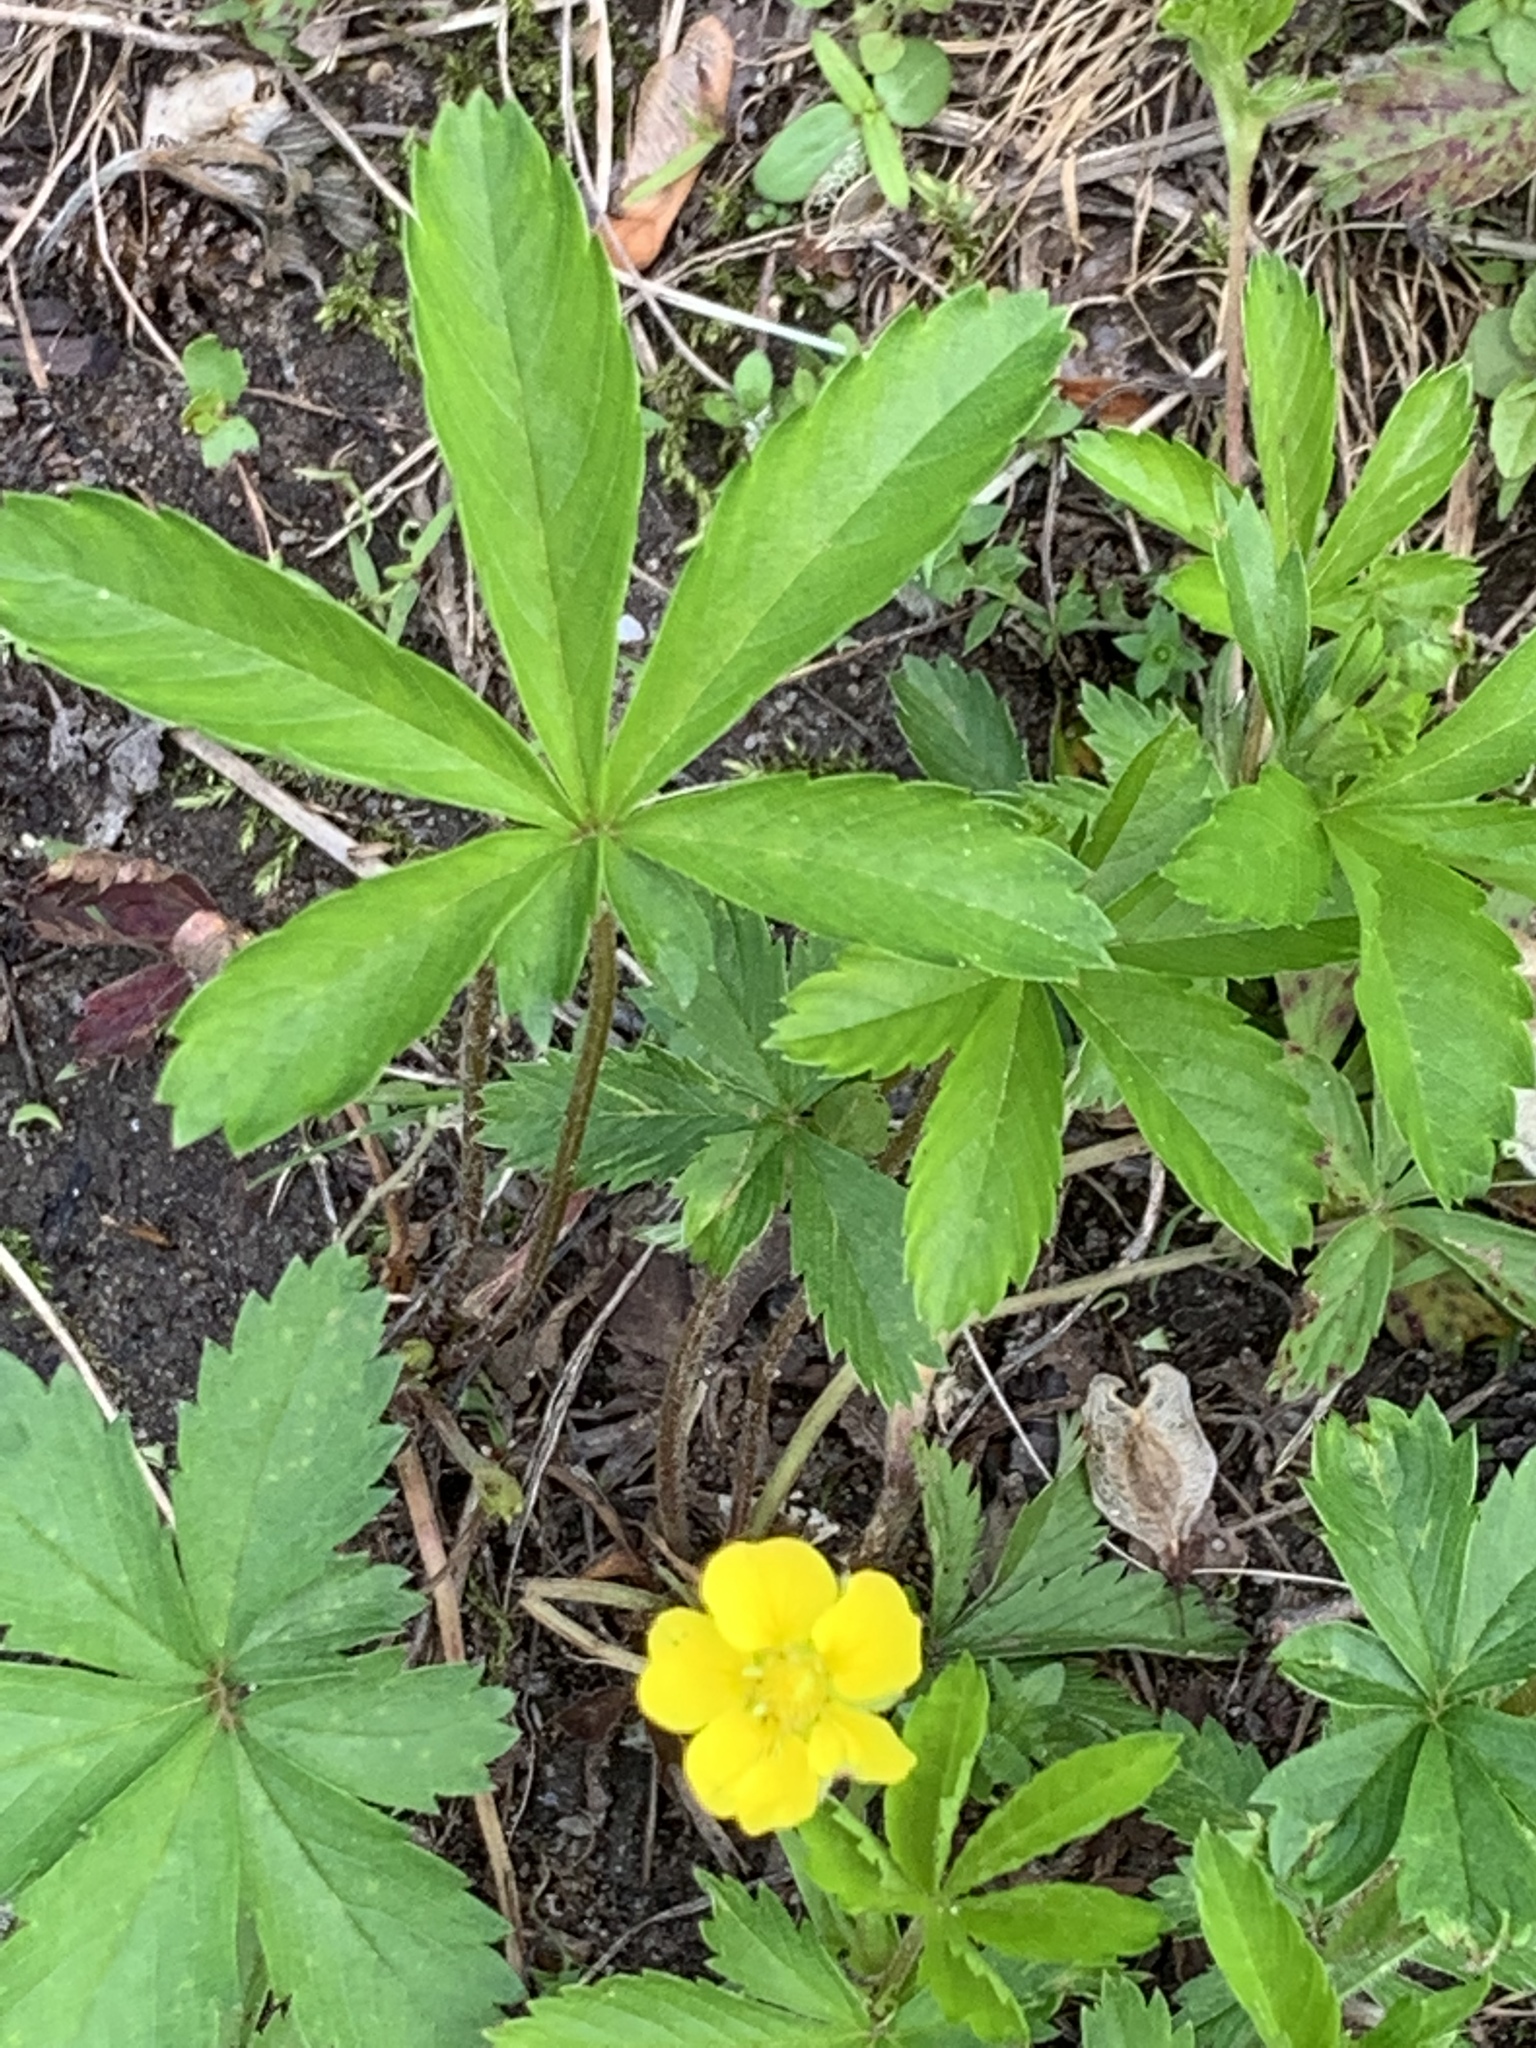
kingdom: Plantae
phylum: Tracheophyta
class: Magnoliopsida
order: Rosales
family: Rosaceae
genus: Potentilla
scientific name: Potentilla simplex
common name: Old field cinquefoil
